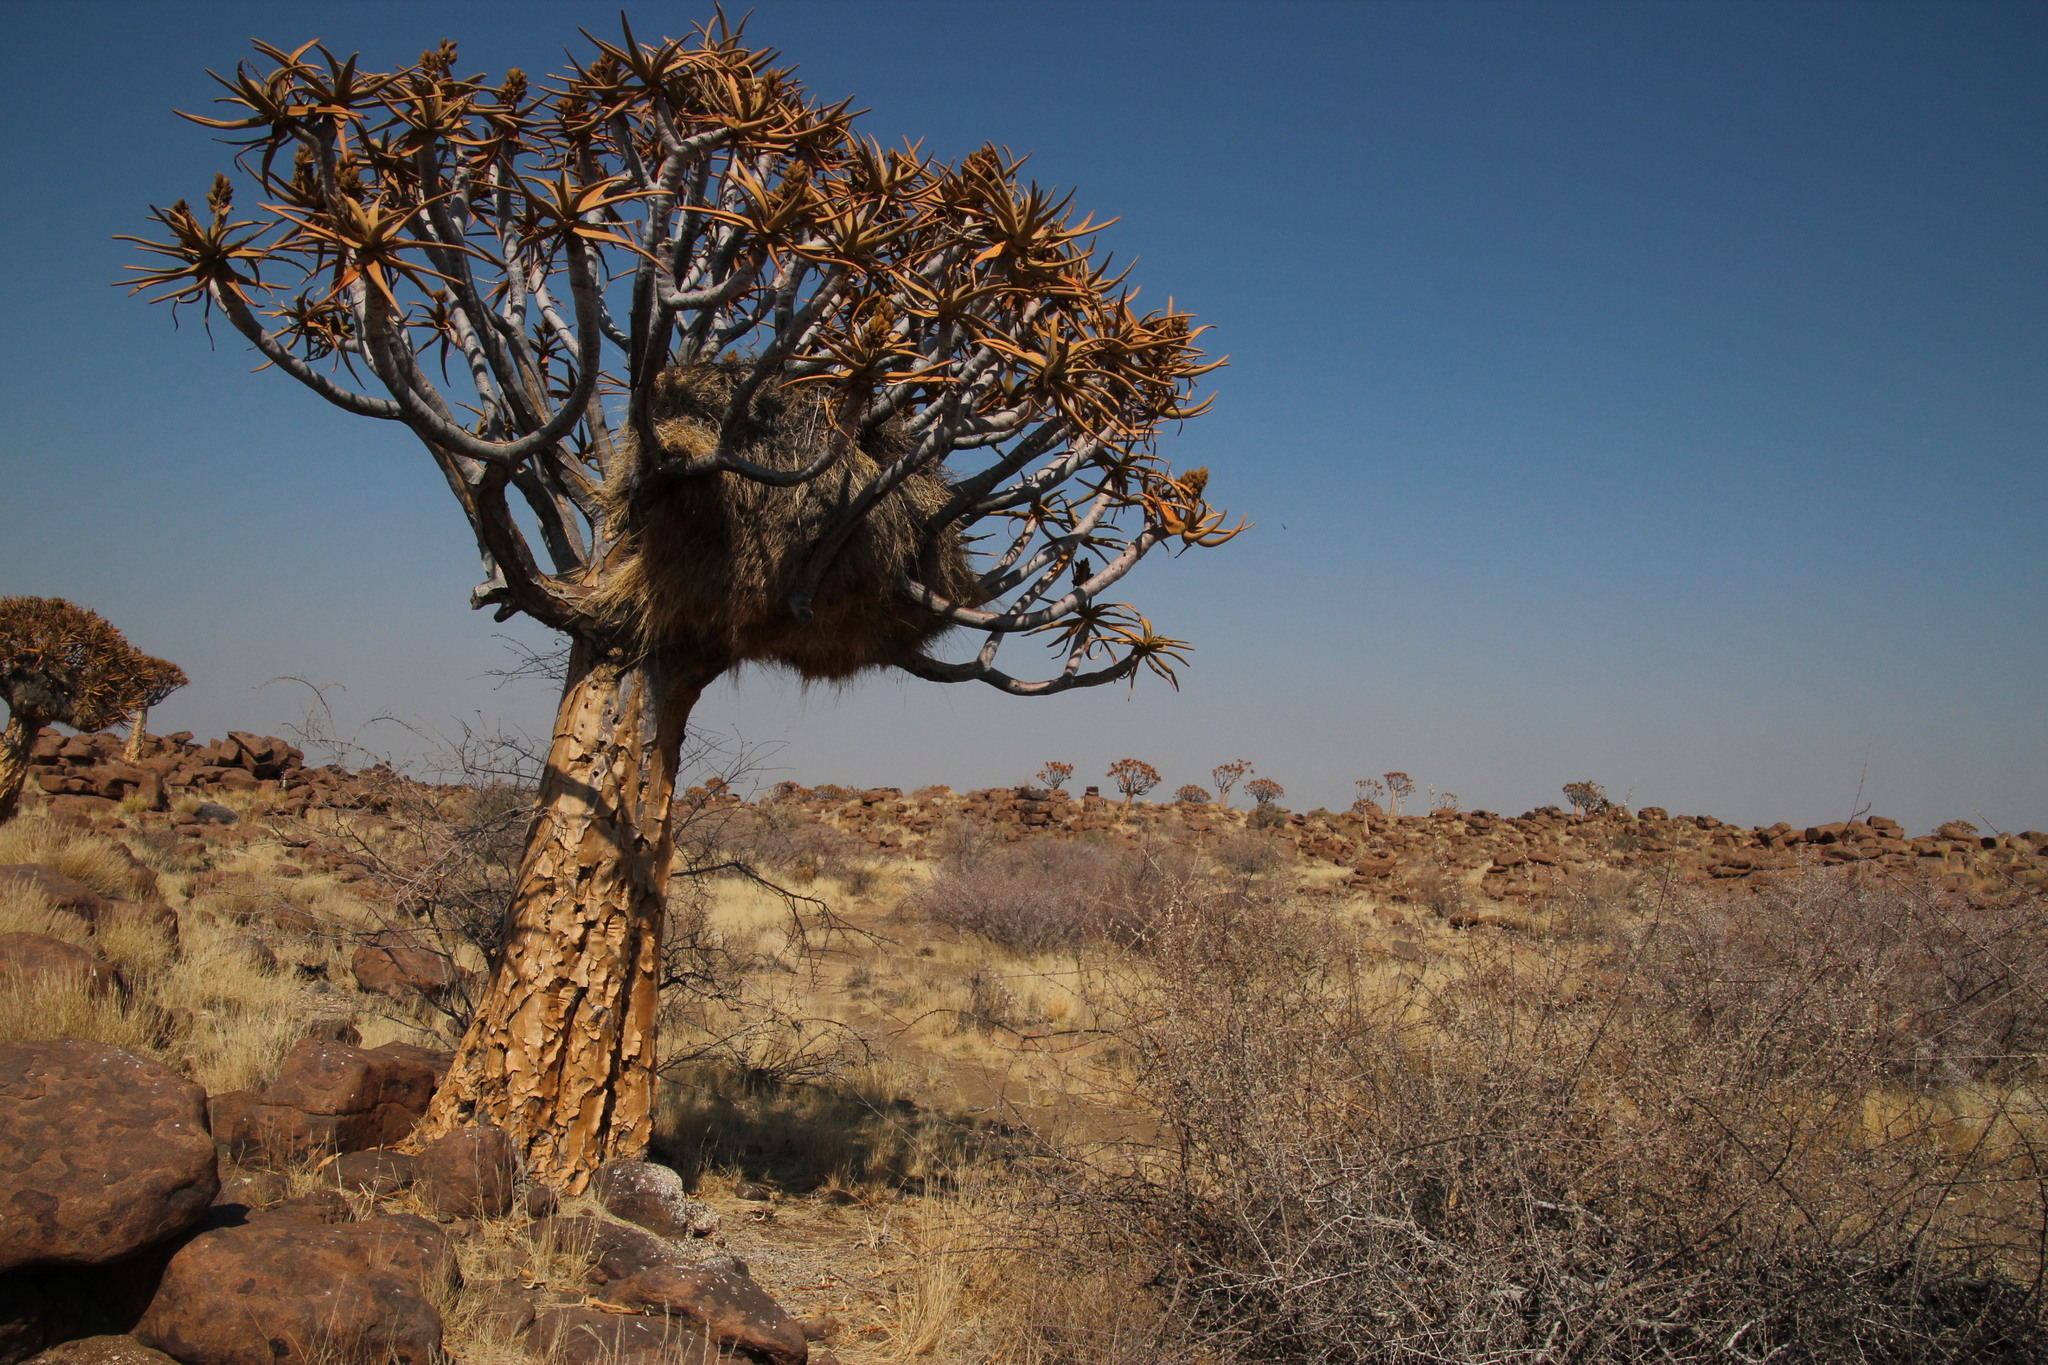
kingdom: Plantae
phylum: Tracheophyta
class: Liliopsida
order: Asparagales
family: Asphodelaceae
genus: Aloidendron
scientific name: Aloidendron dichotomum
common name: Quiver tree
